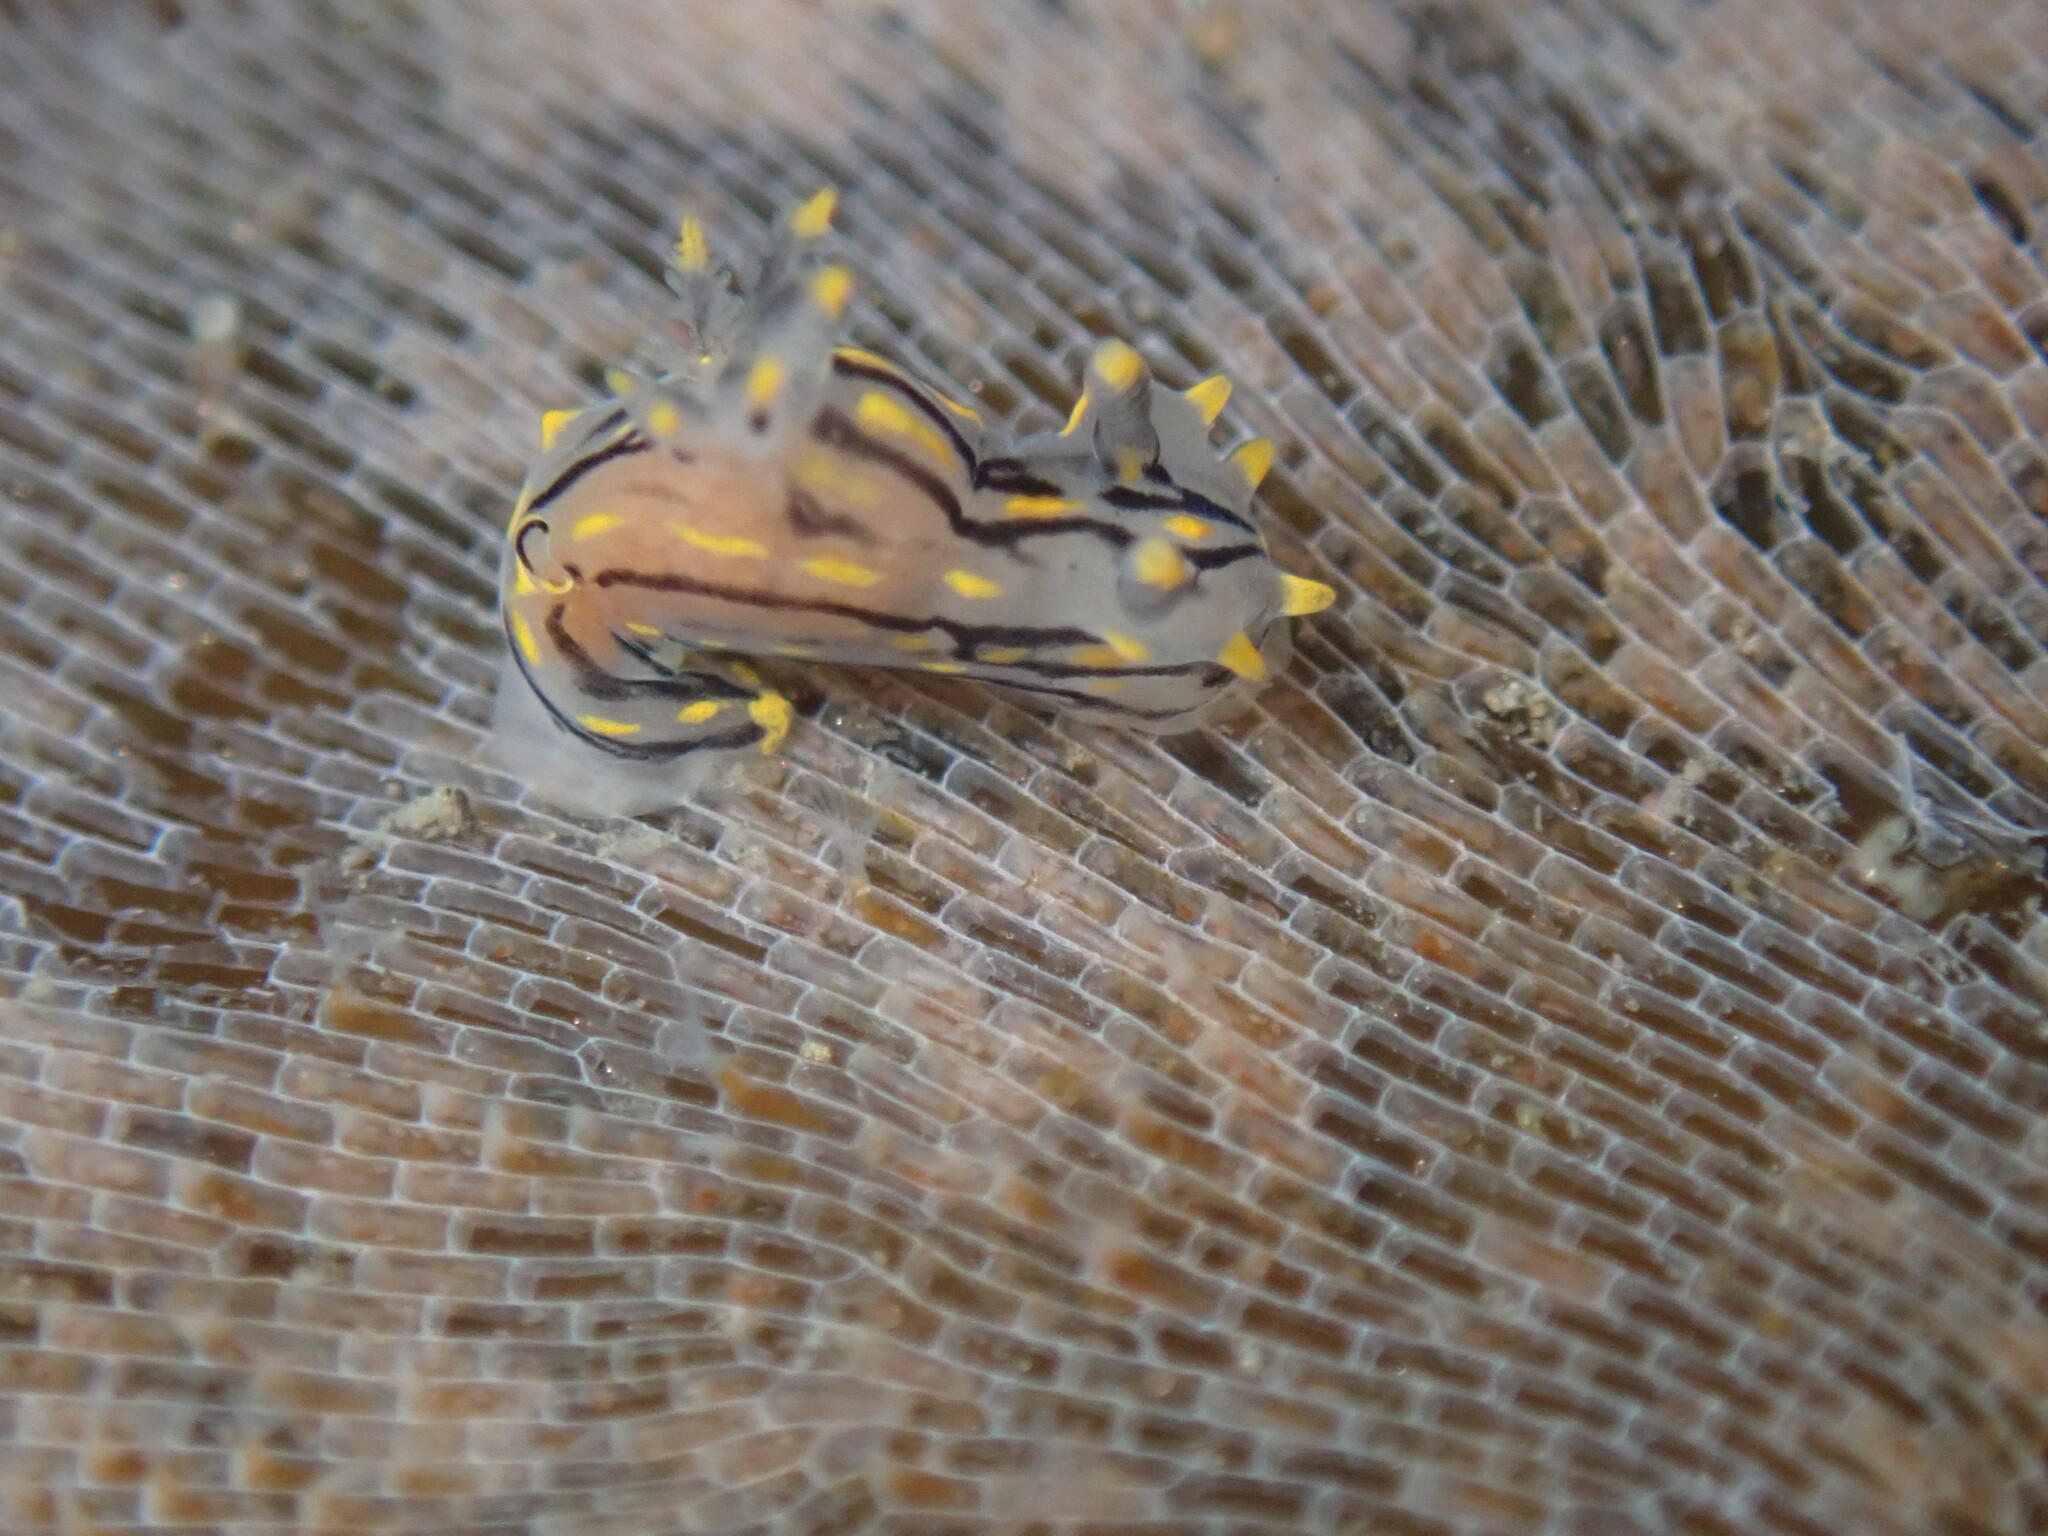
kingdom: Animalia
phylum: Mollusca
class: Gastropoda
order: Nudibranchia
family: Polyceridae
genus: Polycera
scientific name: Polycera atra
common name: Orange-spike polycera
